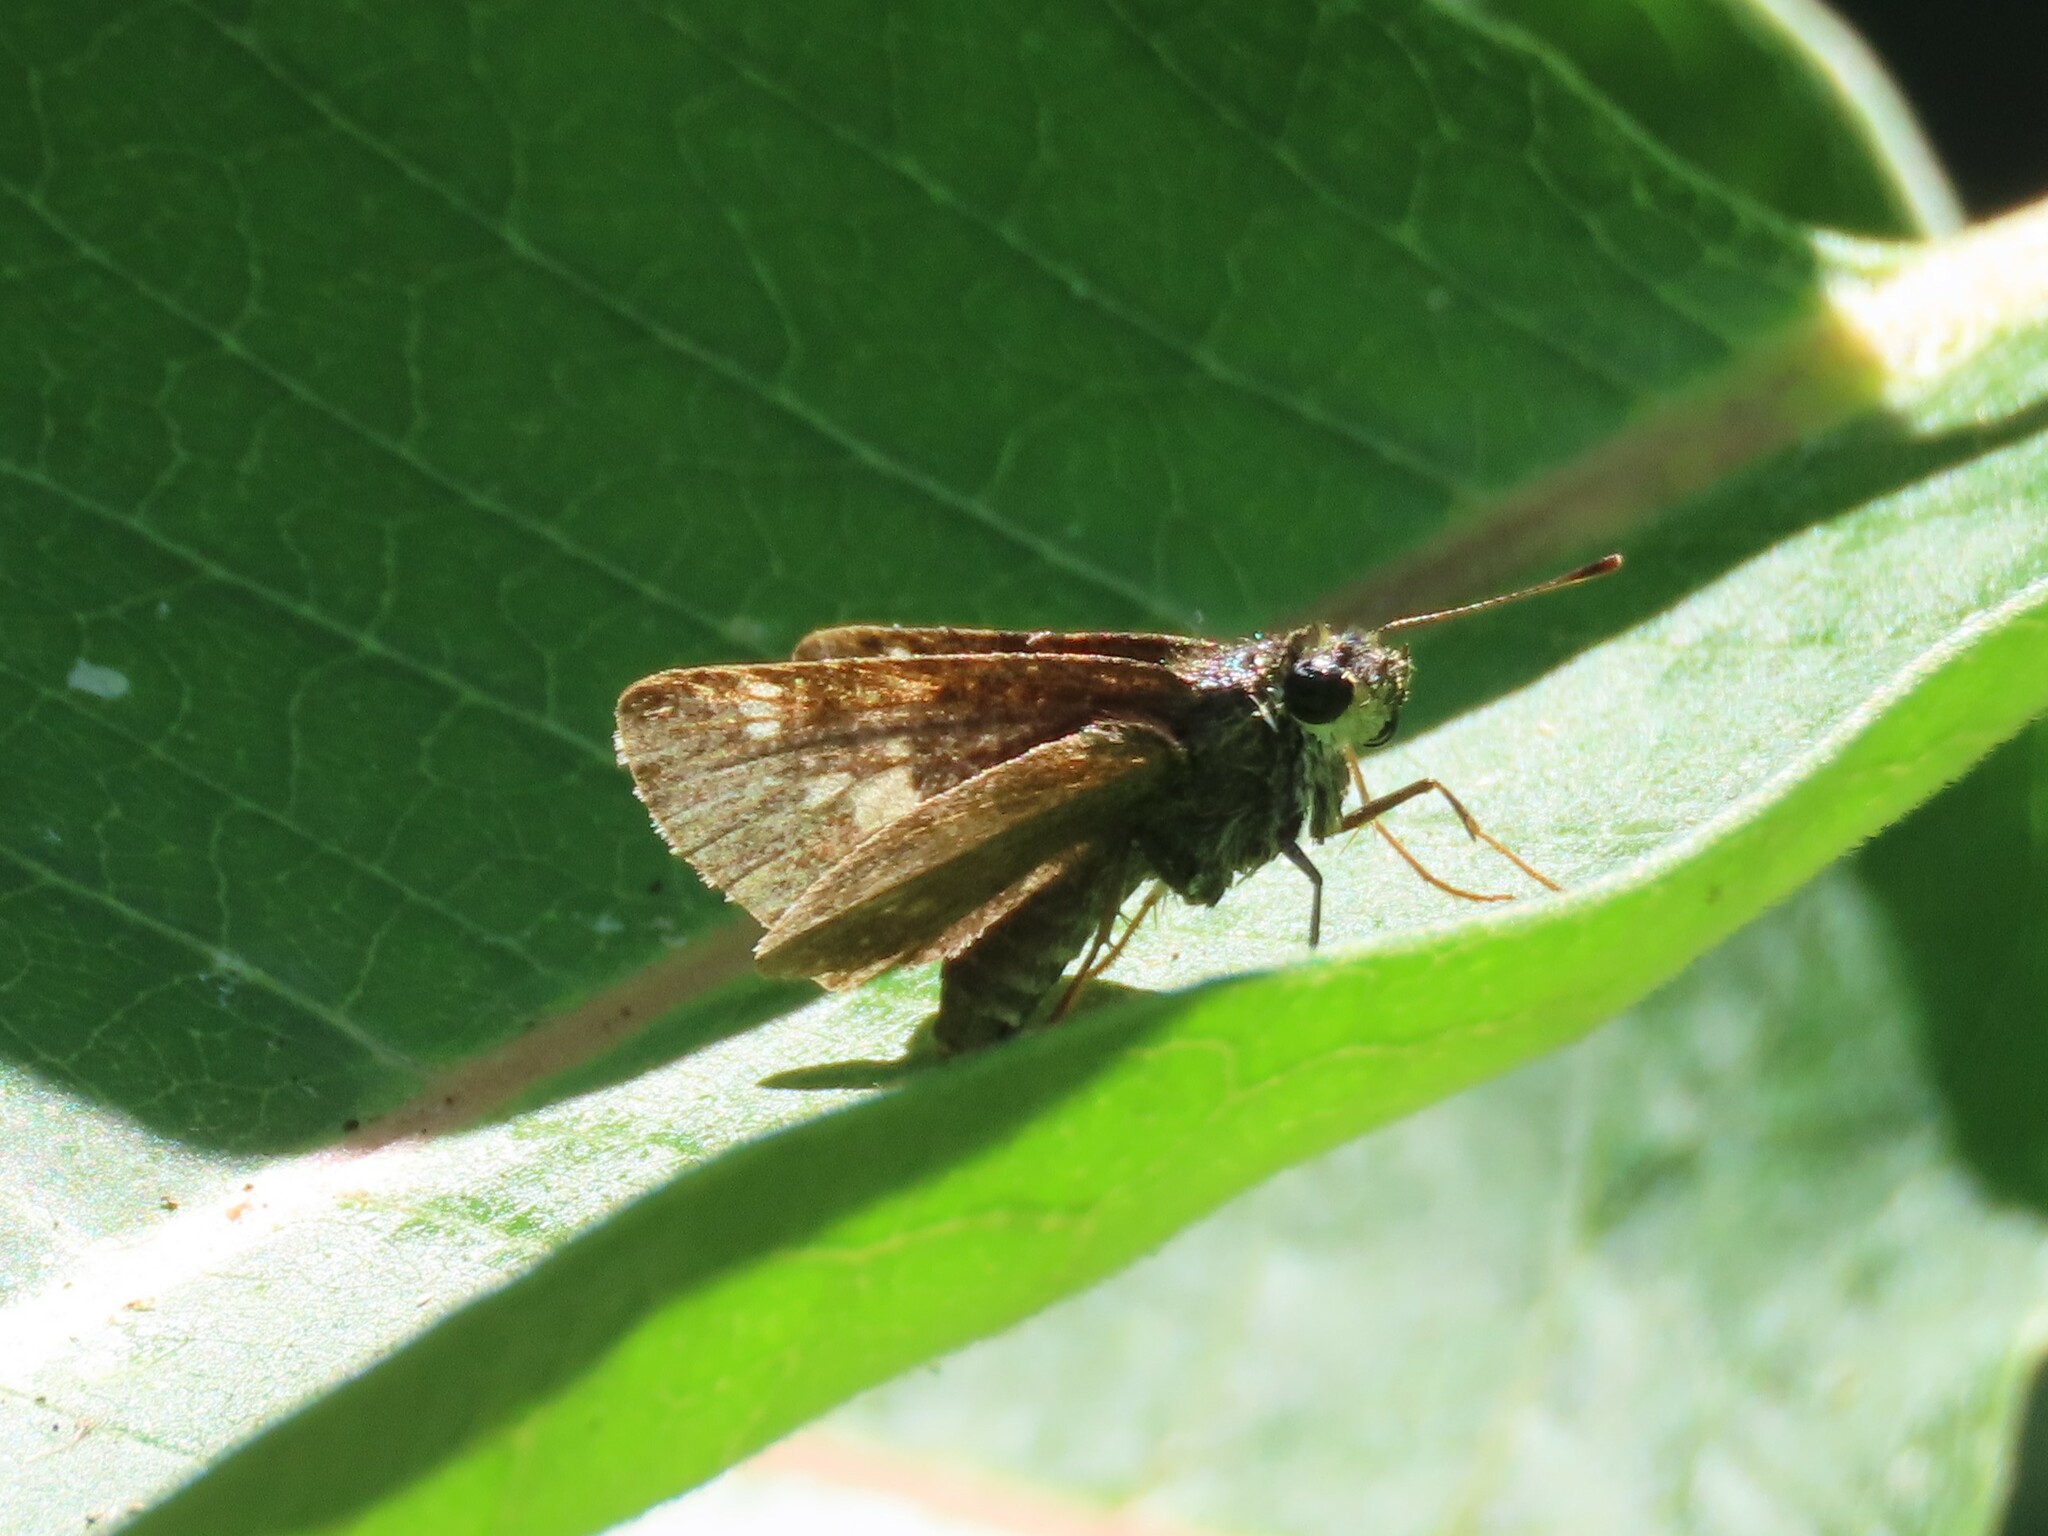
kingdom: Animalia
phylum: Arthropoda
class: Insecta
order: Lepidoptera
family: Hesperiidae
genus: Vernia
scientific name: Vernia verna
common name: Little glassywing
